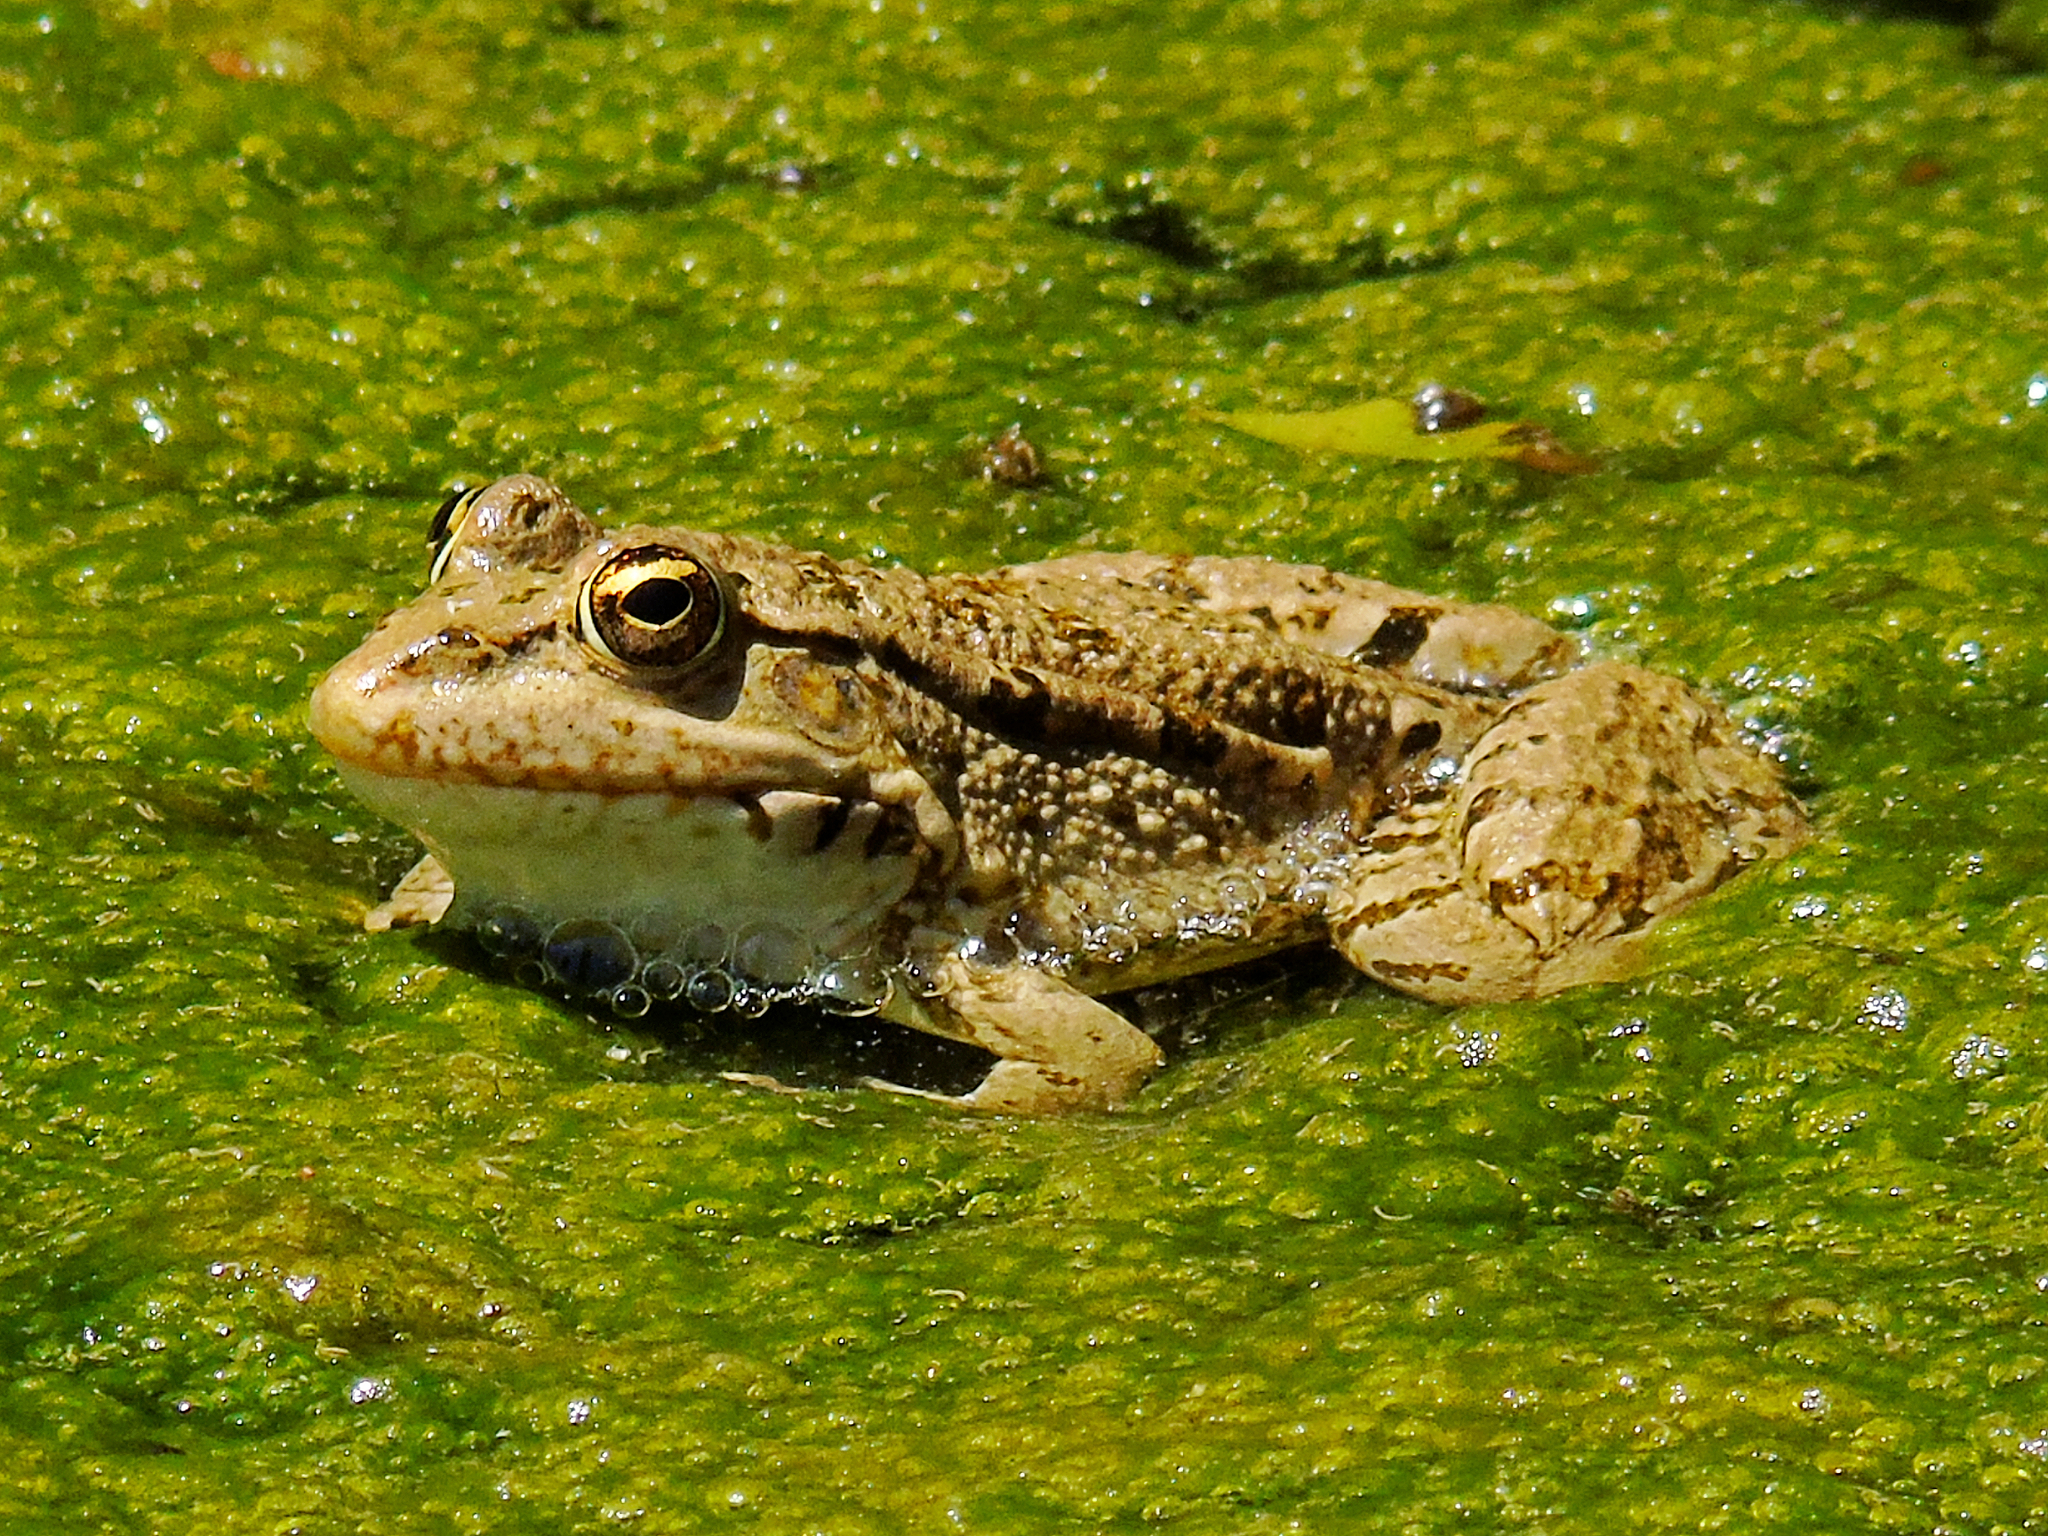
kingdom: Animalia
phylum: Chordata
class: Amphibia
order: Anura
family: Ranidae
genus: Pelophylax
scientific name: Pelophylax ridibundus
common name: Marsh frog
